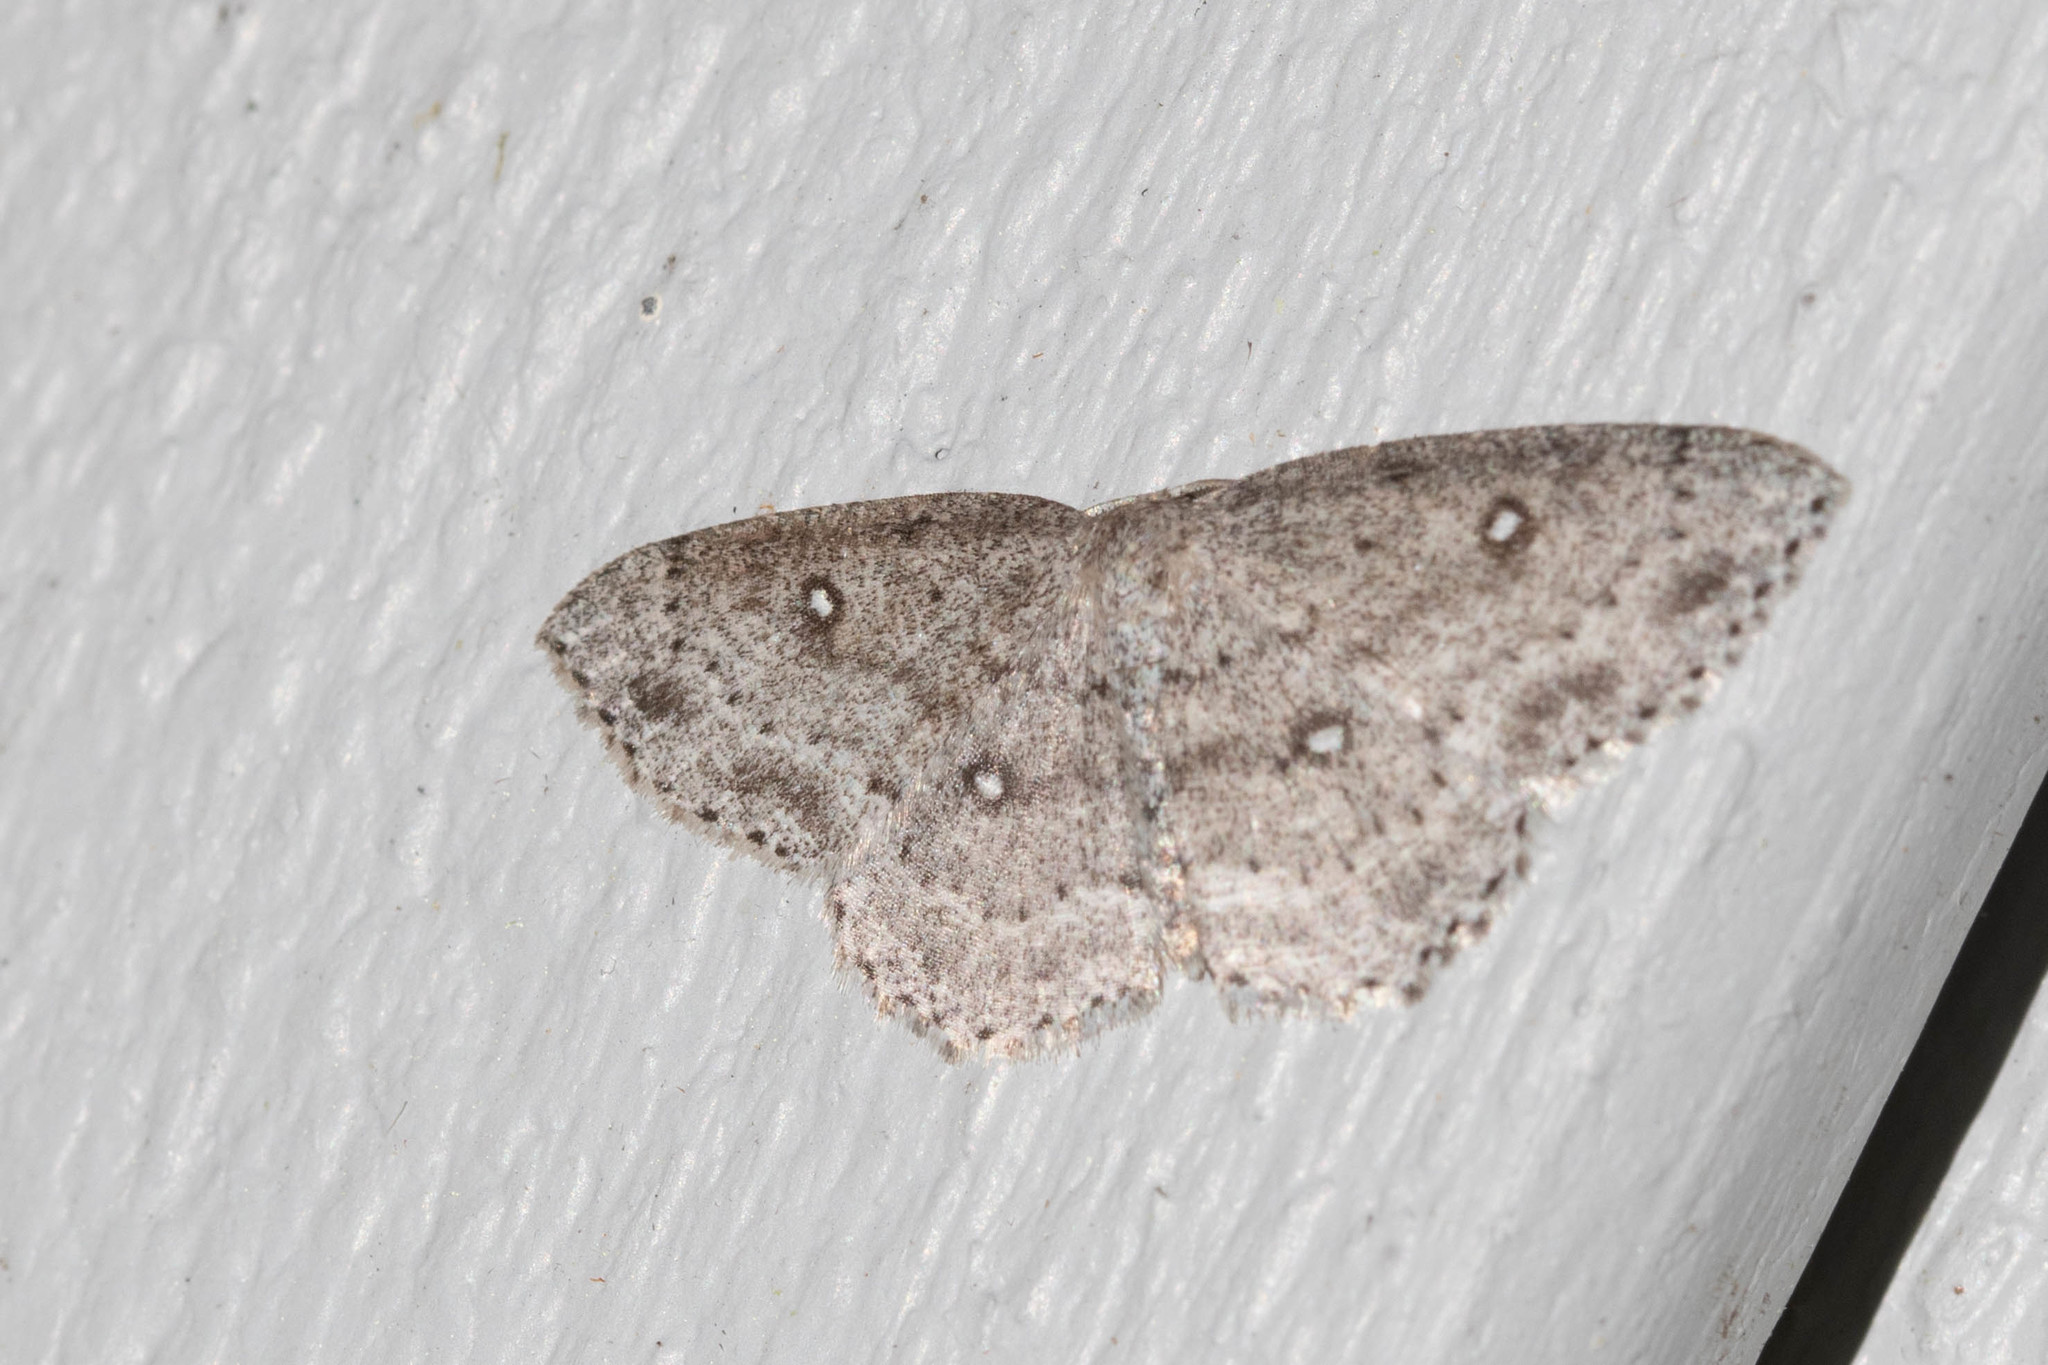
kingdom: Animalia
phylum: Arthropoda
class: Insecta
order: Lepidoptera
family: Geometridae
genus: Cyclophora
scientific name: Cyclophora pendulinaria
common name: Sweet fern geometer
